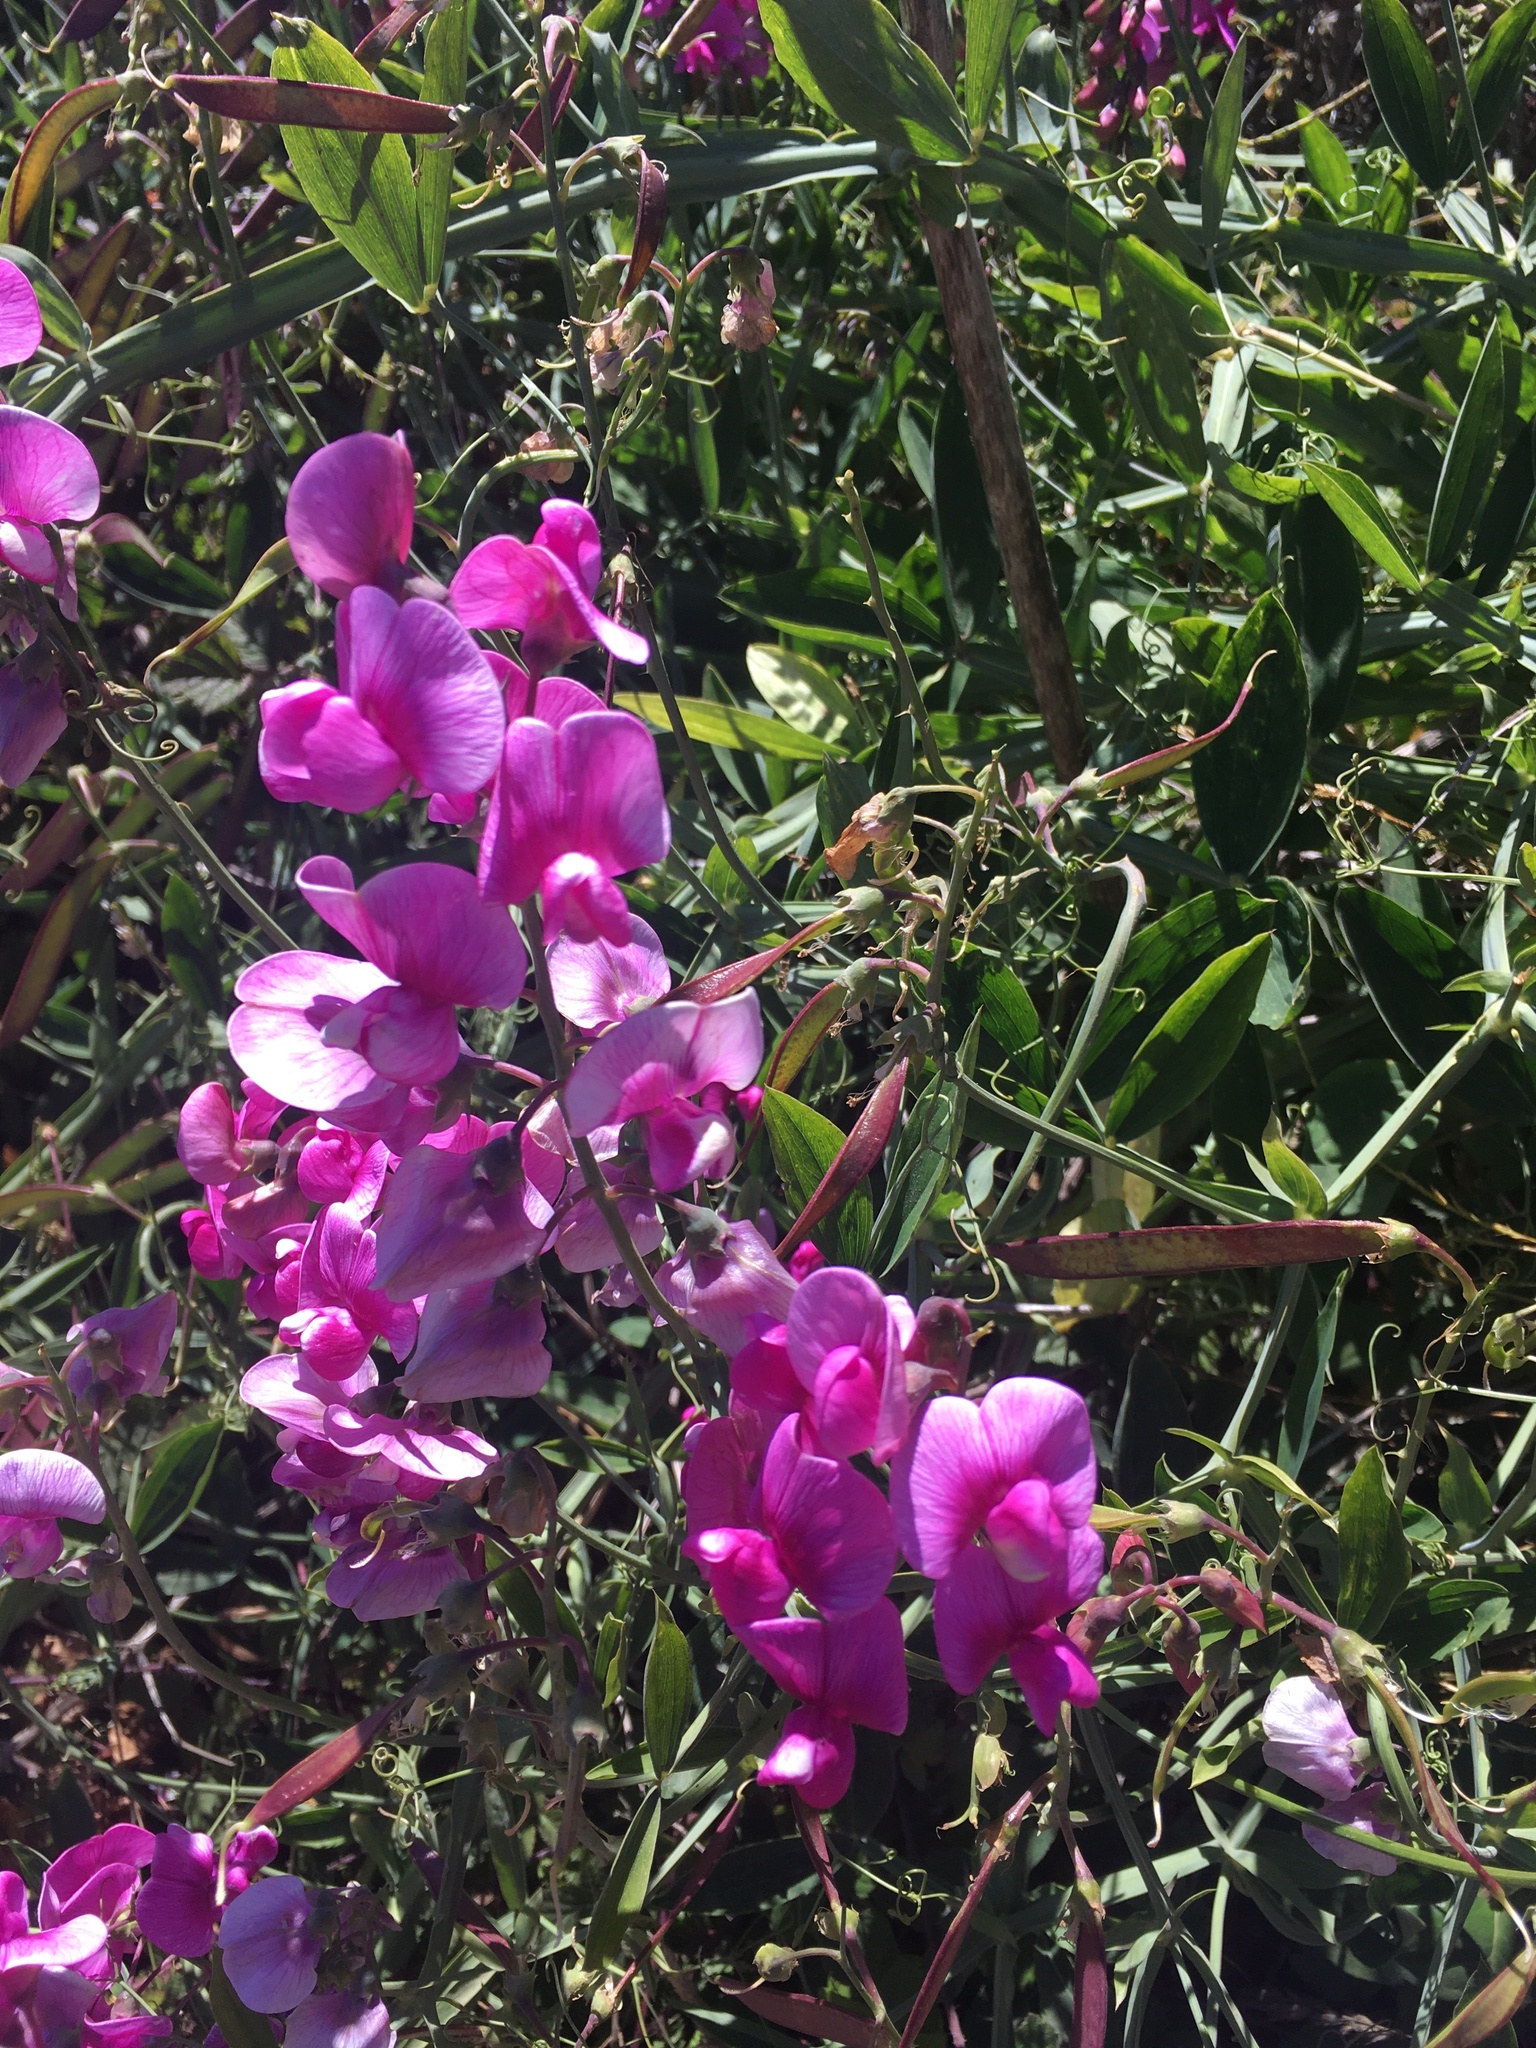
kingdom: Plantae
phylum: Tracheophyta
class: Magnoliopsida
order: Fabales
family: Fabaceae
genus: Lathyrus
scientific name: Lathyrus latifolius
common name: Perennial pea
